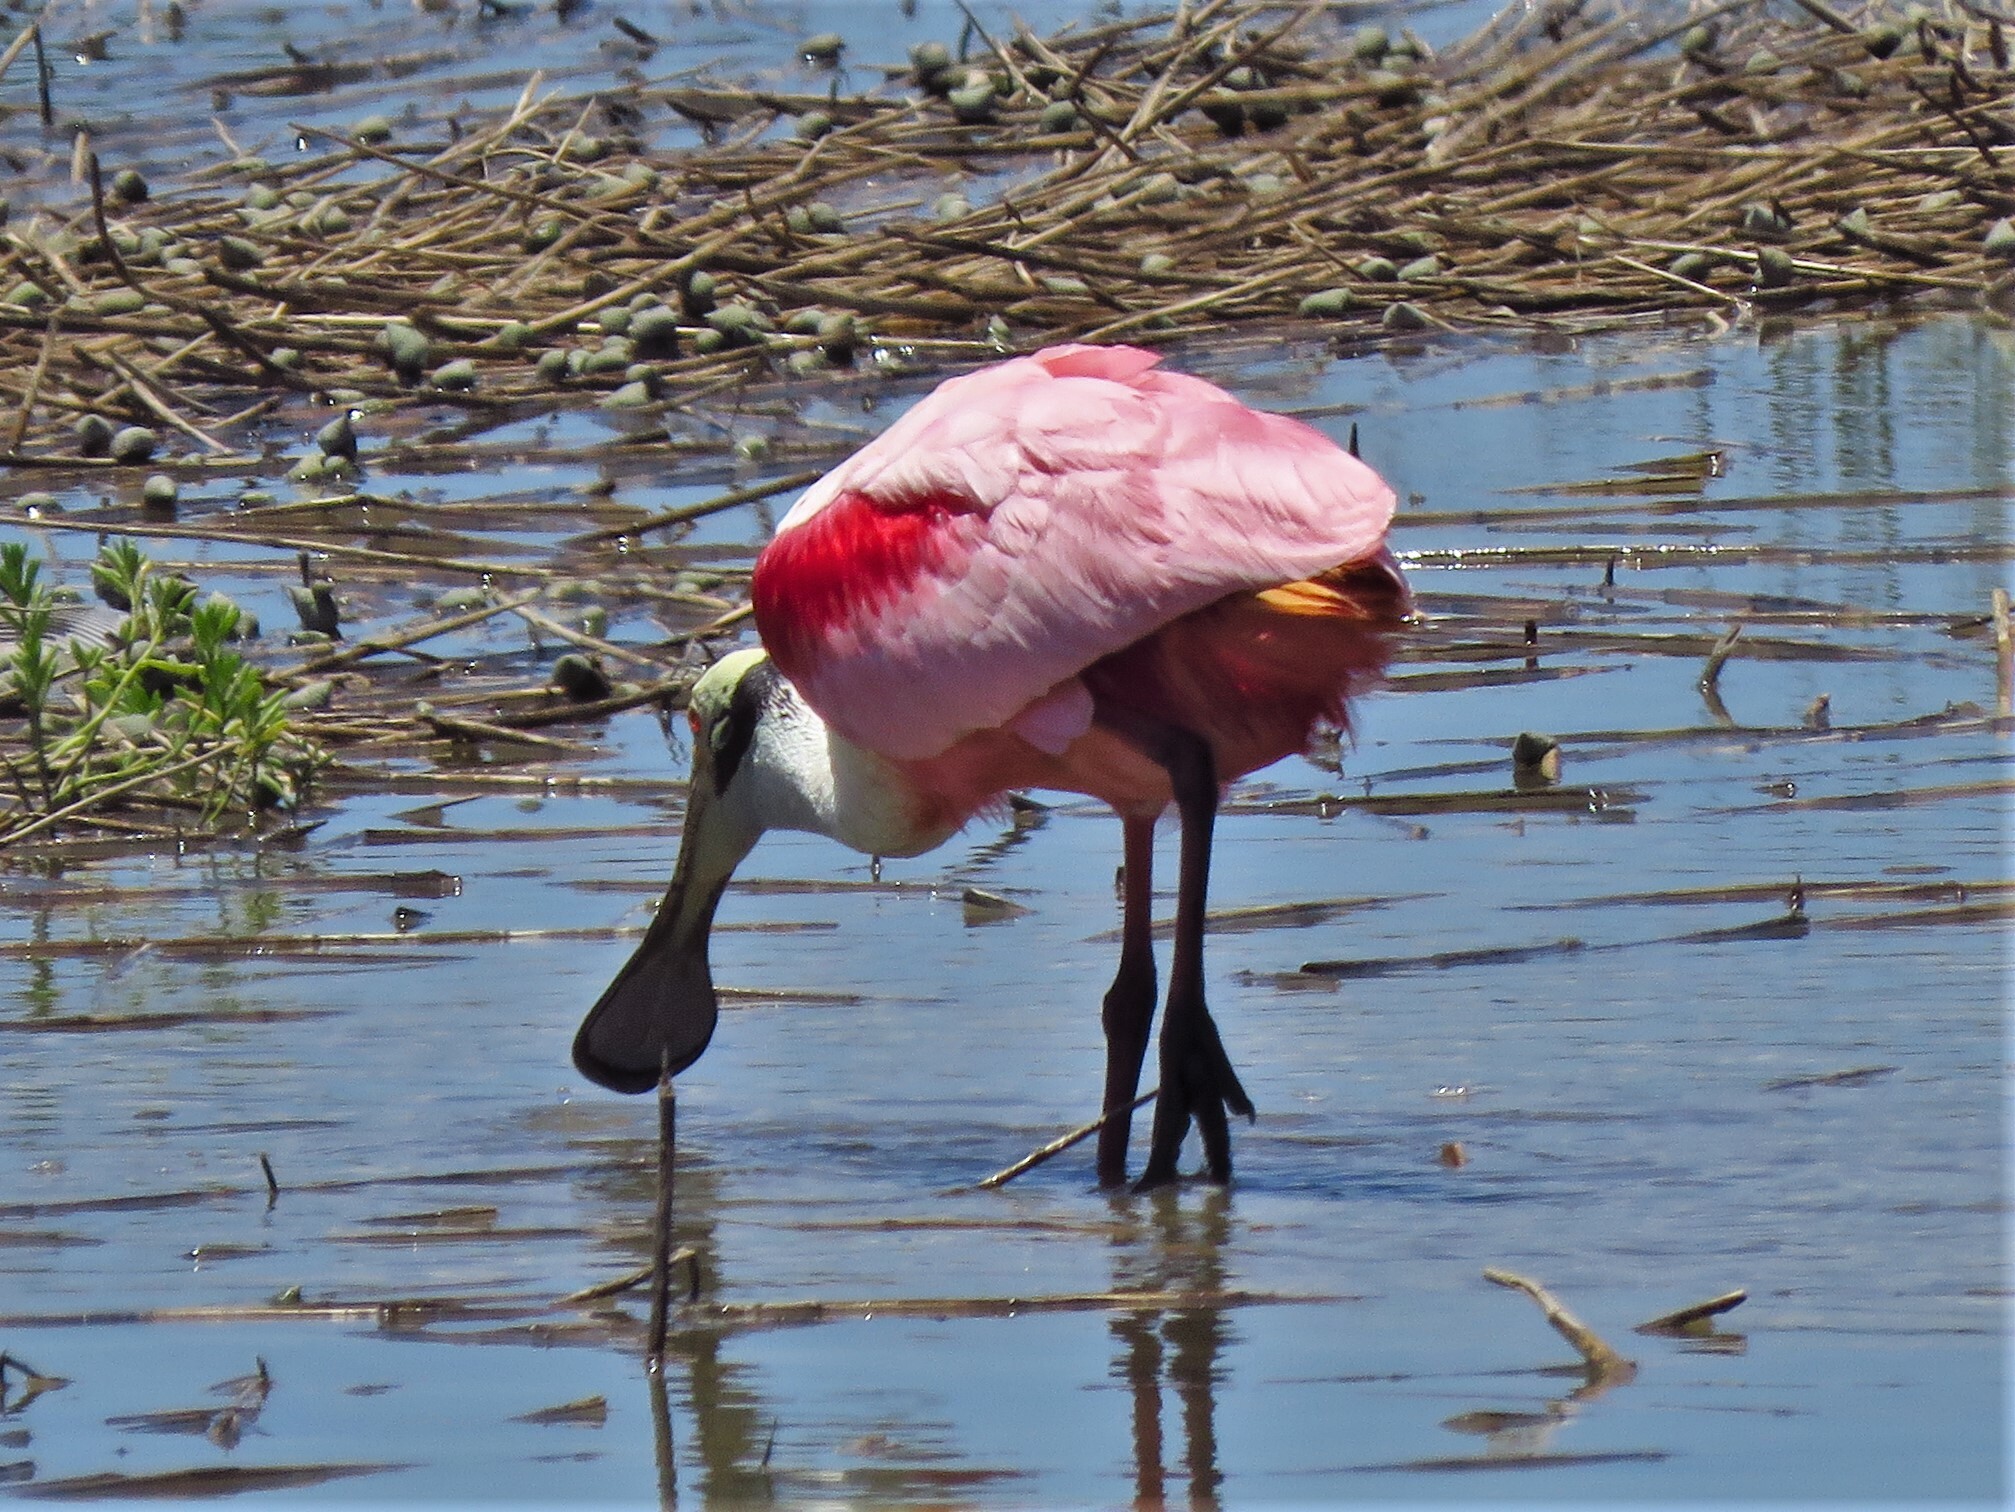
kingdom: Animalia
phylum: Chordata
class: Aves
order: Pelecaniformes
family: Threskiornithidae
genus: Platalea
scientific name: Platalea ajaja
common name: Roseate spoonbill
